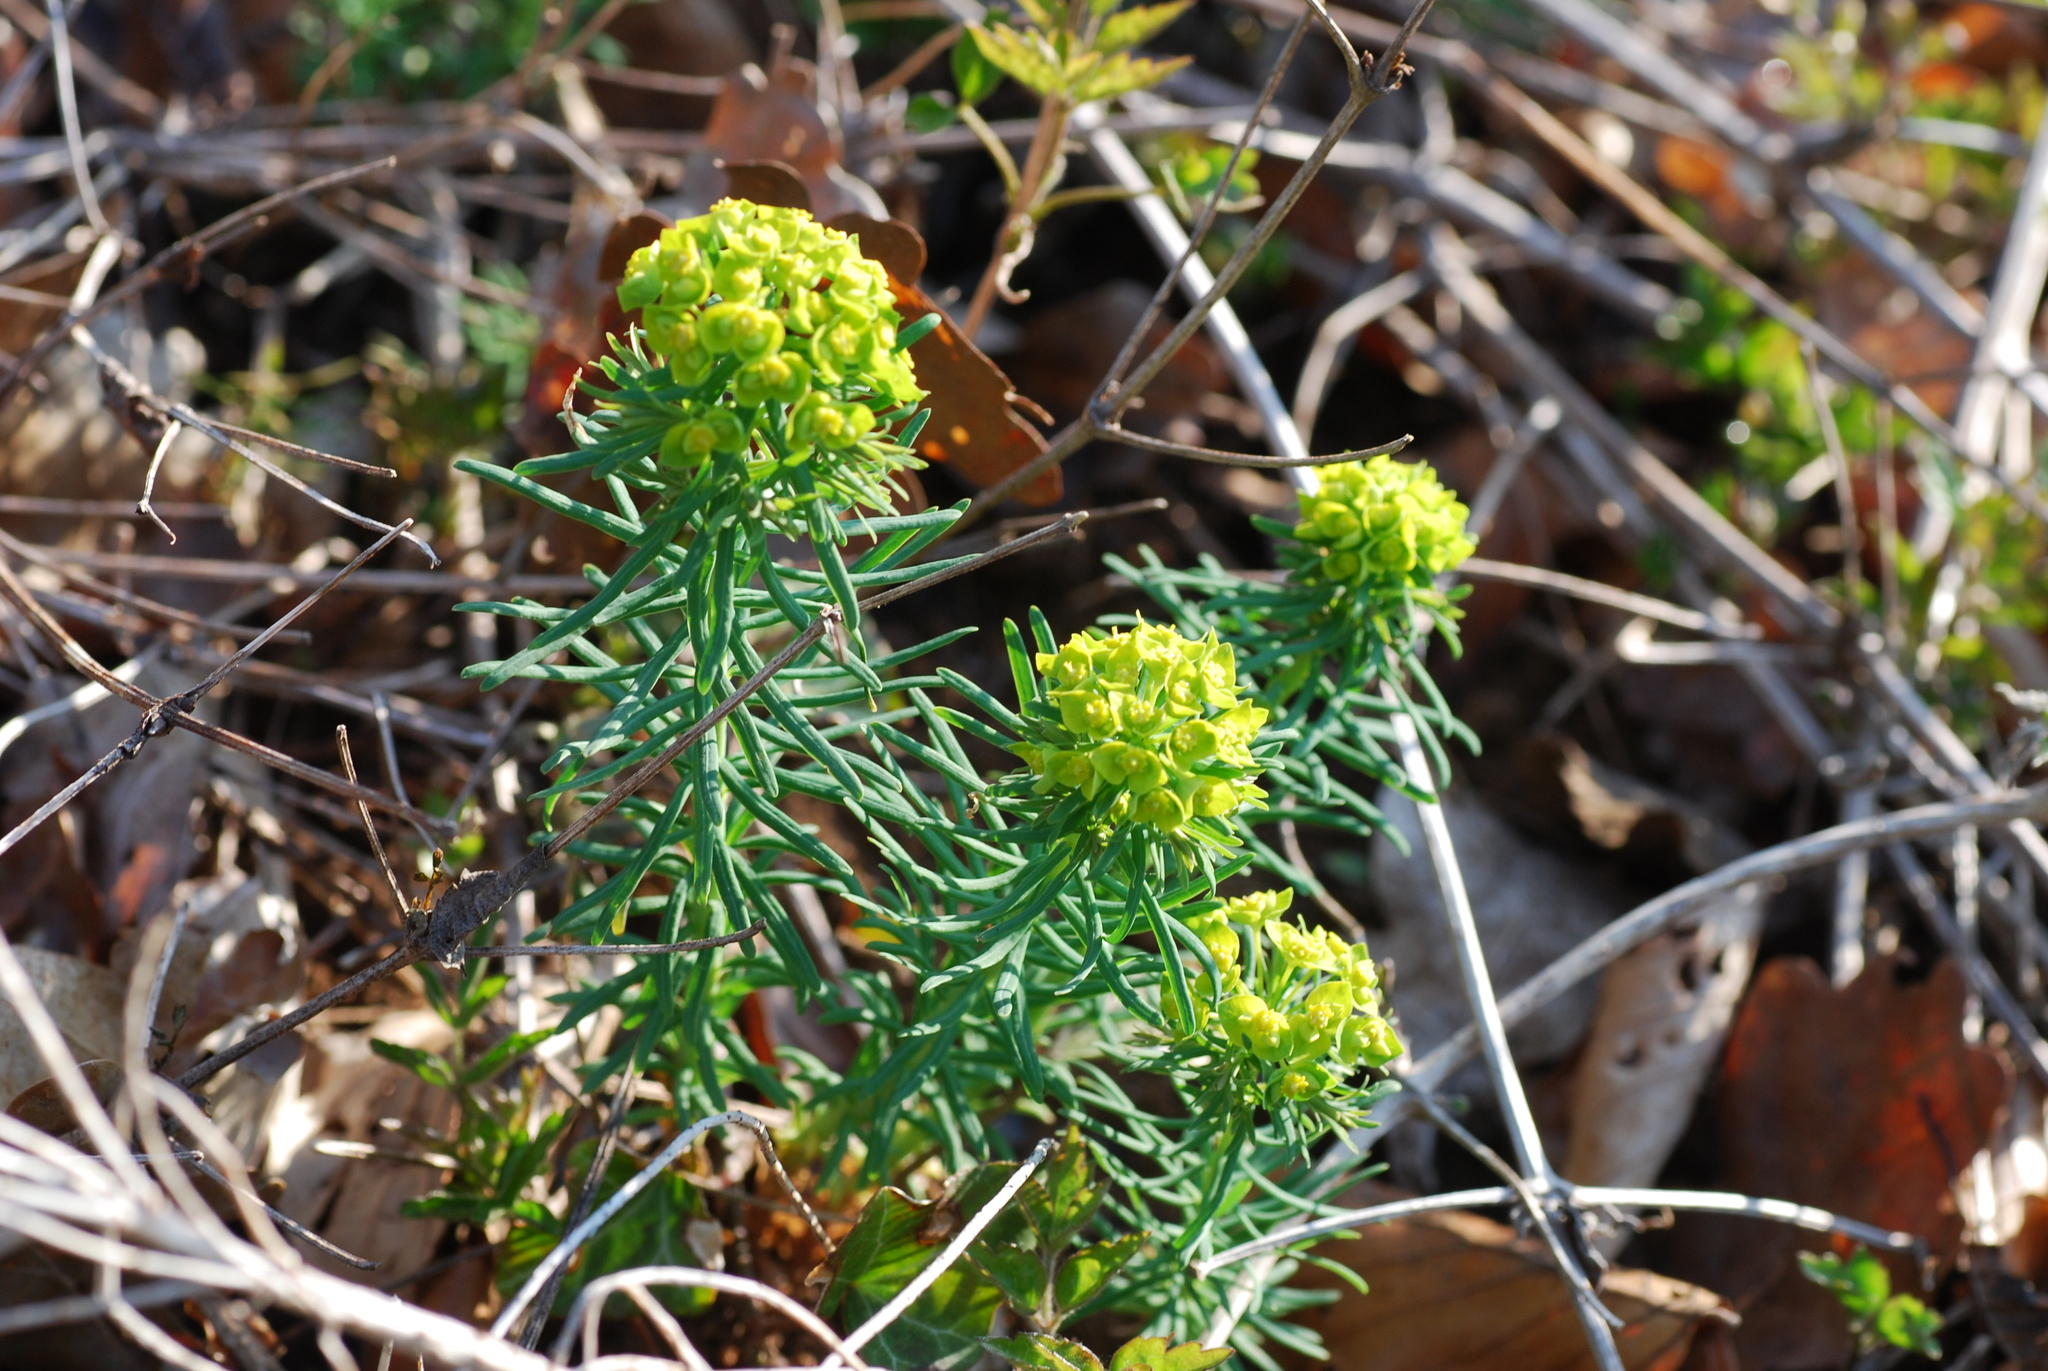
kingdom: Plantae
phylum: Tracheophyta
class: Magnoliopsida
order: Malpighiales
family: Euphorbiaceae
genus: Euphorbia
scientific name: Euphorbia cyparissias
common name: Cypress spurge
